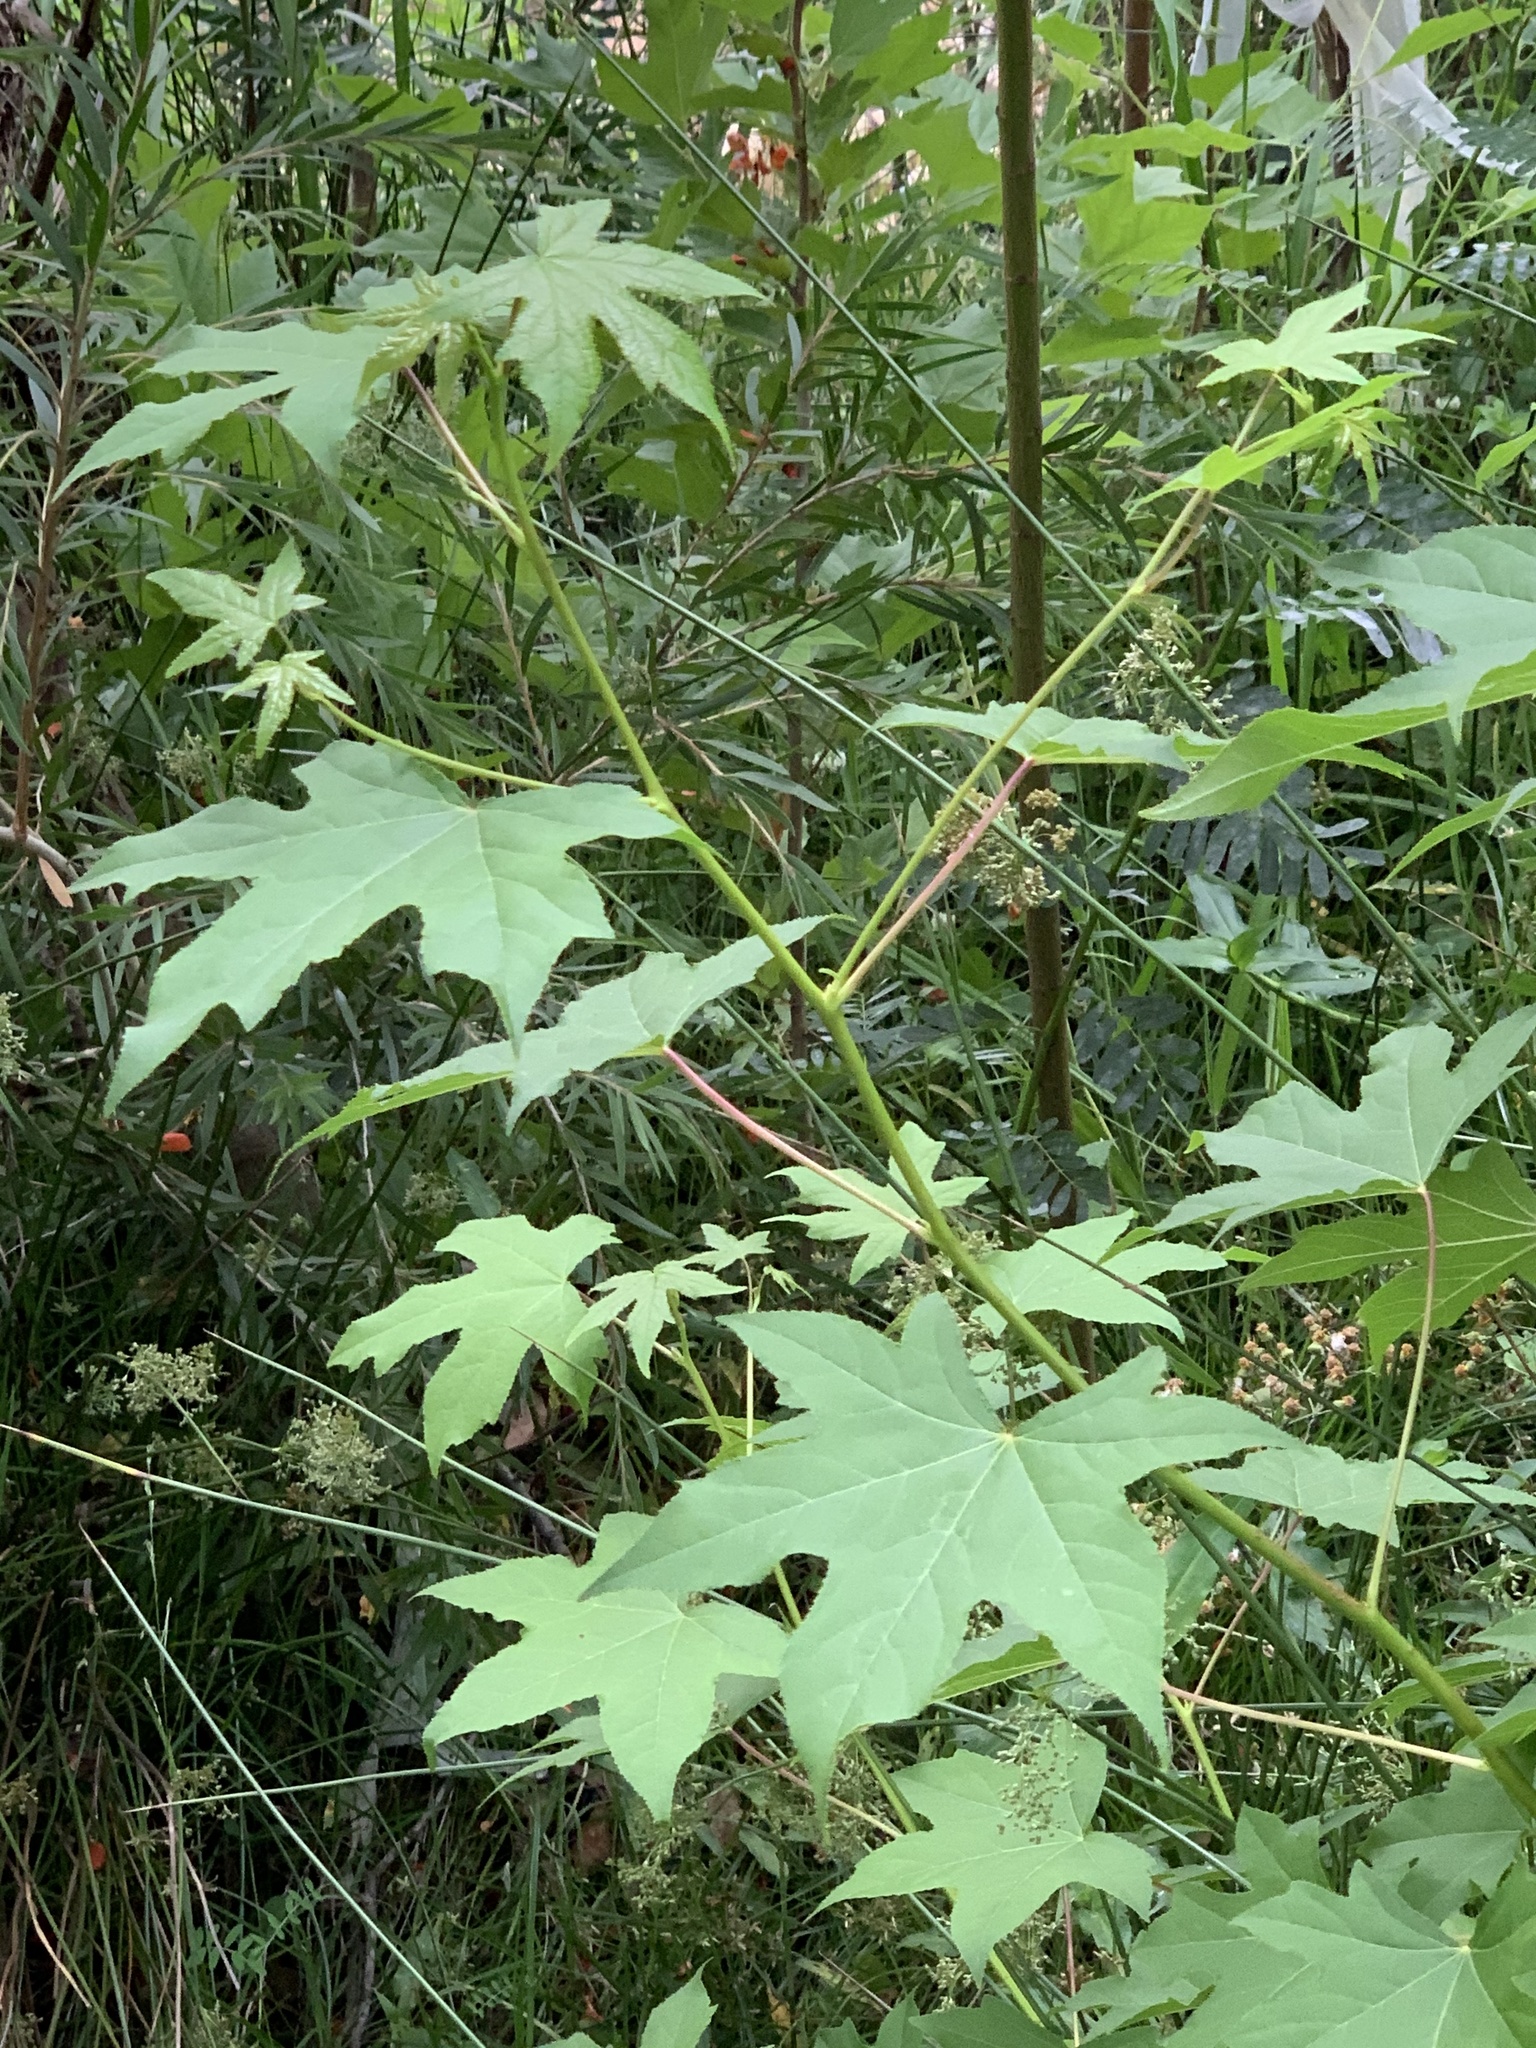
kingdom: Plantae
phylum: Tracheophyta
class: Magnoliopsida
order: Saxifragales
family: Altingiaceae
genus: Liquidambar
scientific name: Liquidambar styraciflua
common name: Sweet gum
